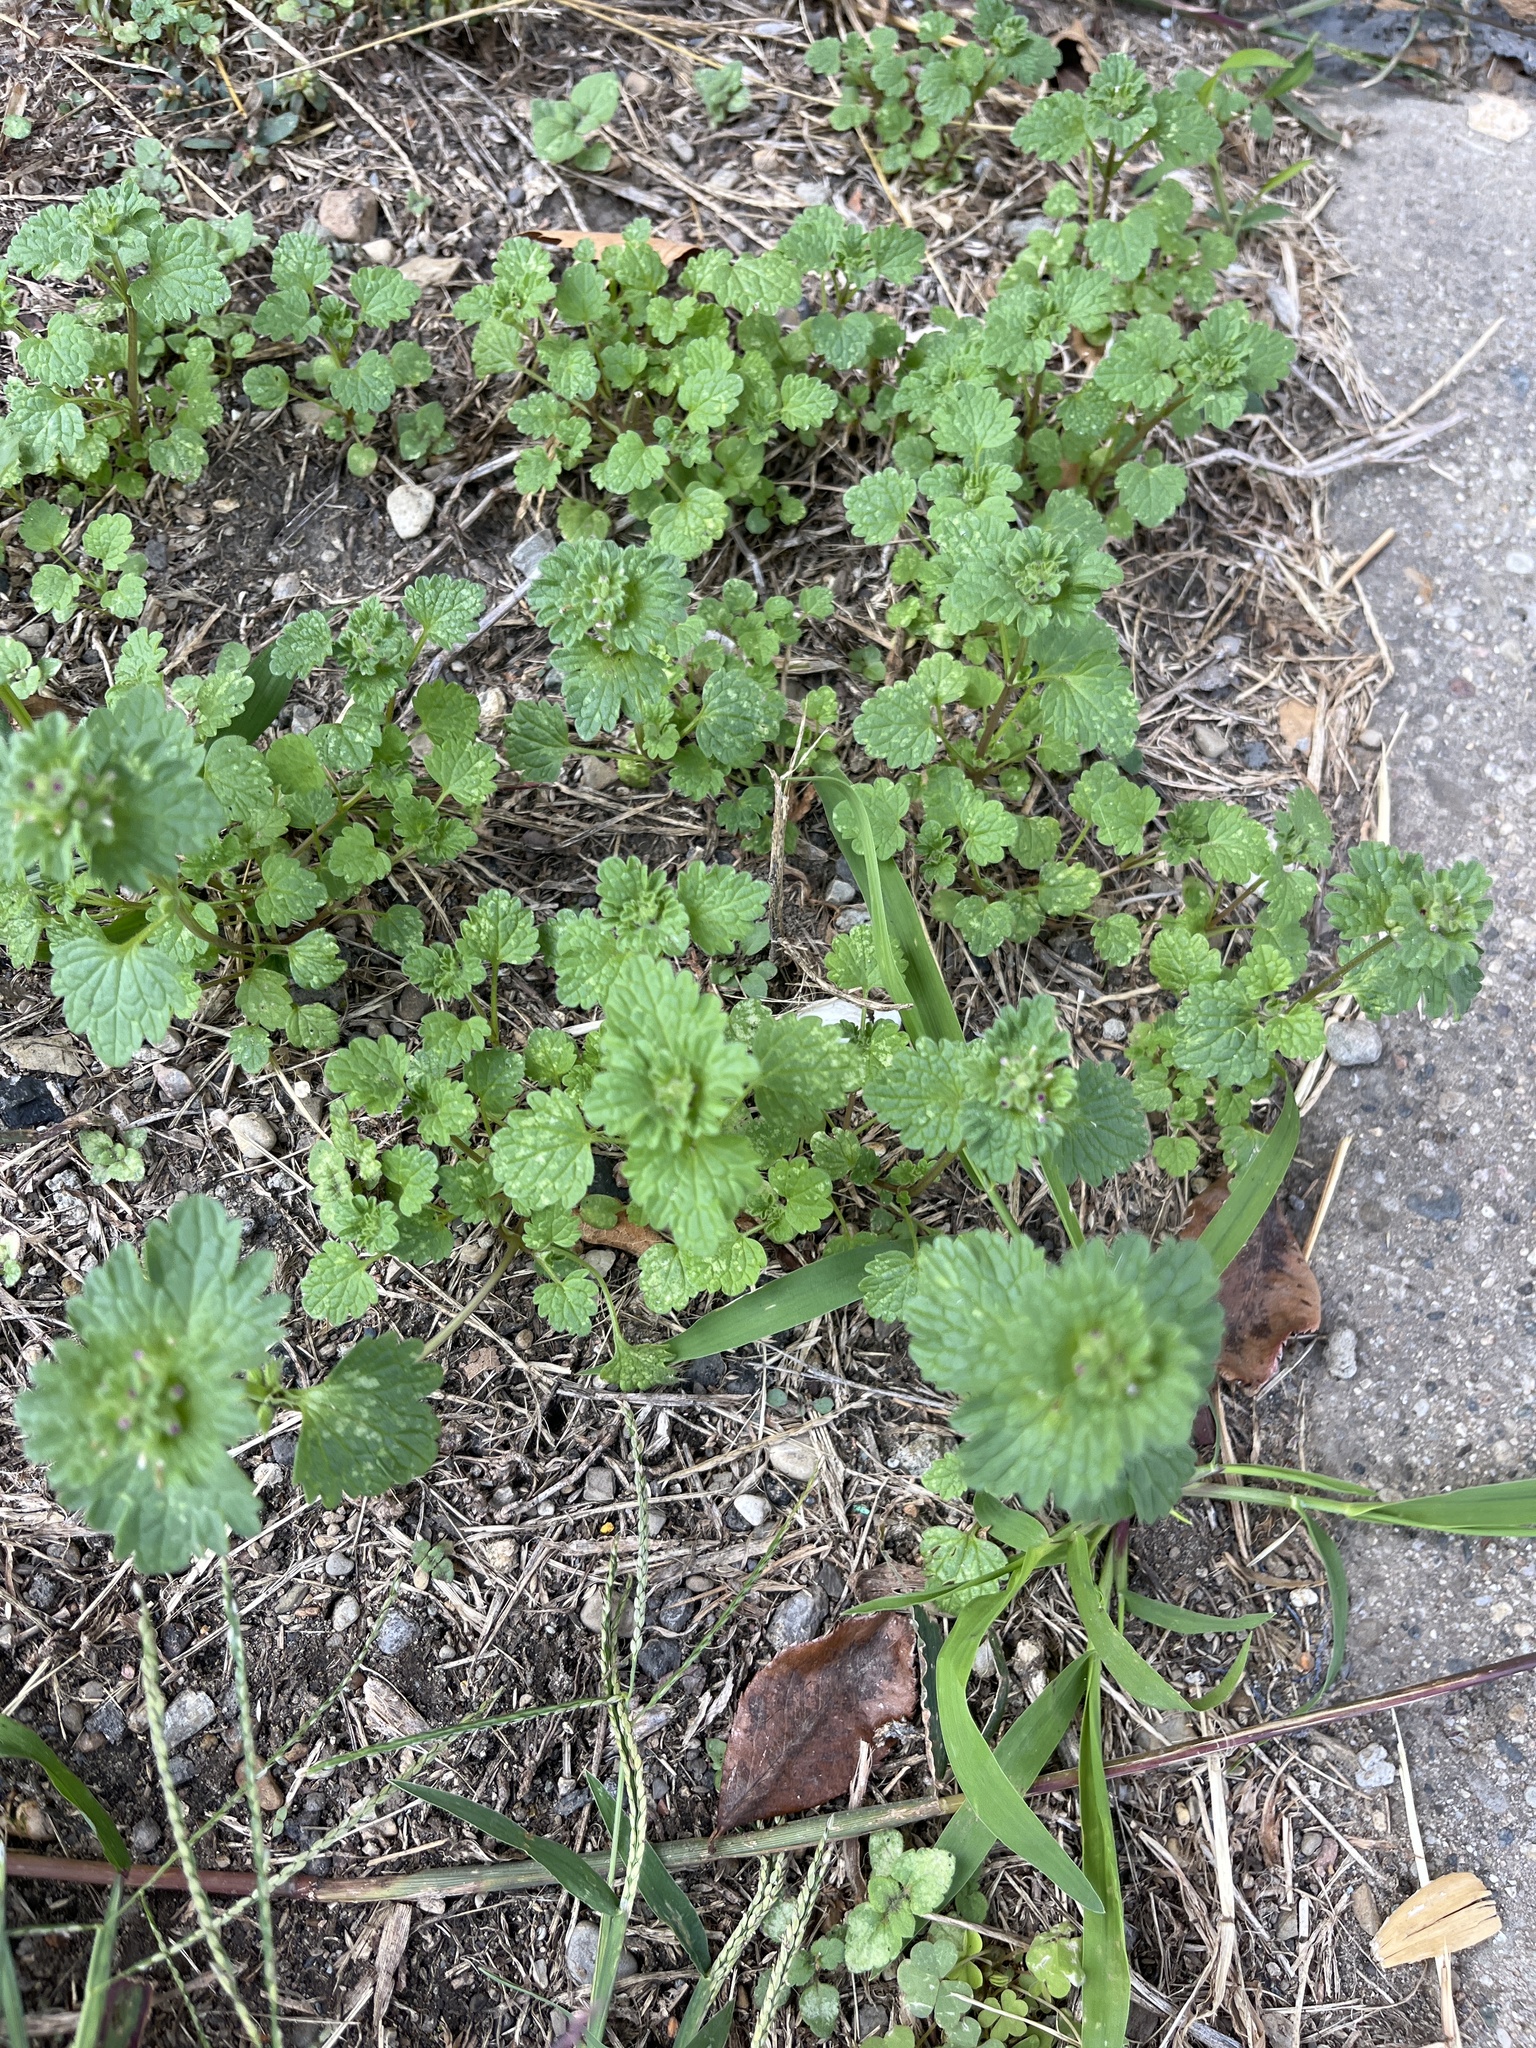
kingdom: Plantae
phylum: Tracheophyta
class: Magnoliopsida
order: Lamiales
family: Lamiaceae
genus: Lamium
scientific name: Lamium amplexicaule
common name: Henbit dead-nettle
